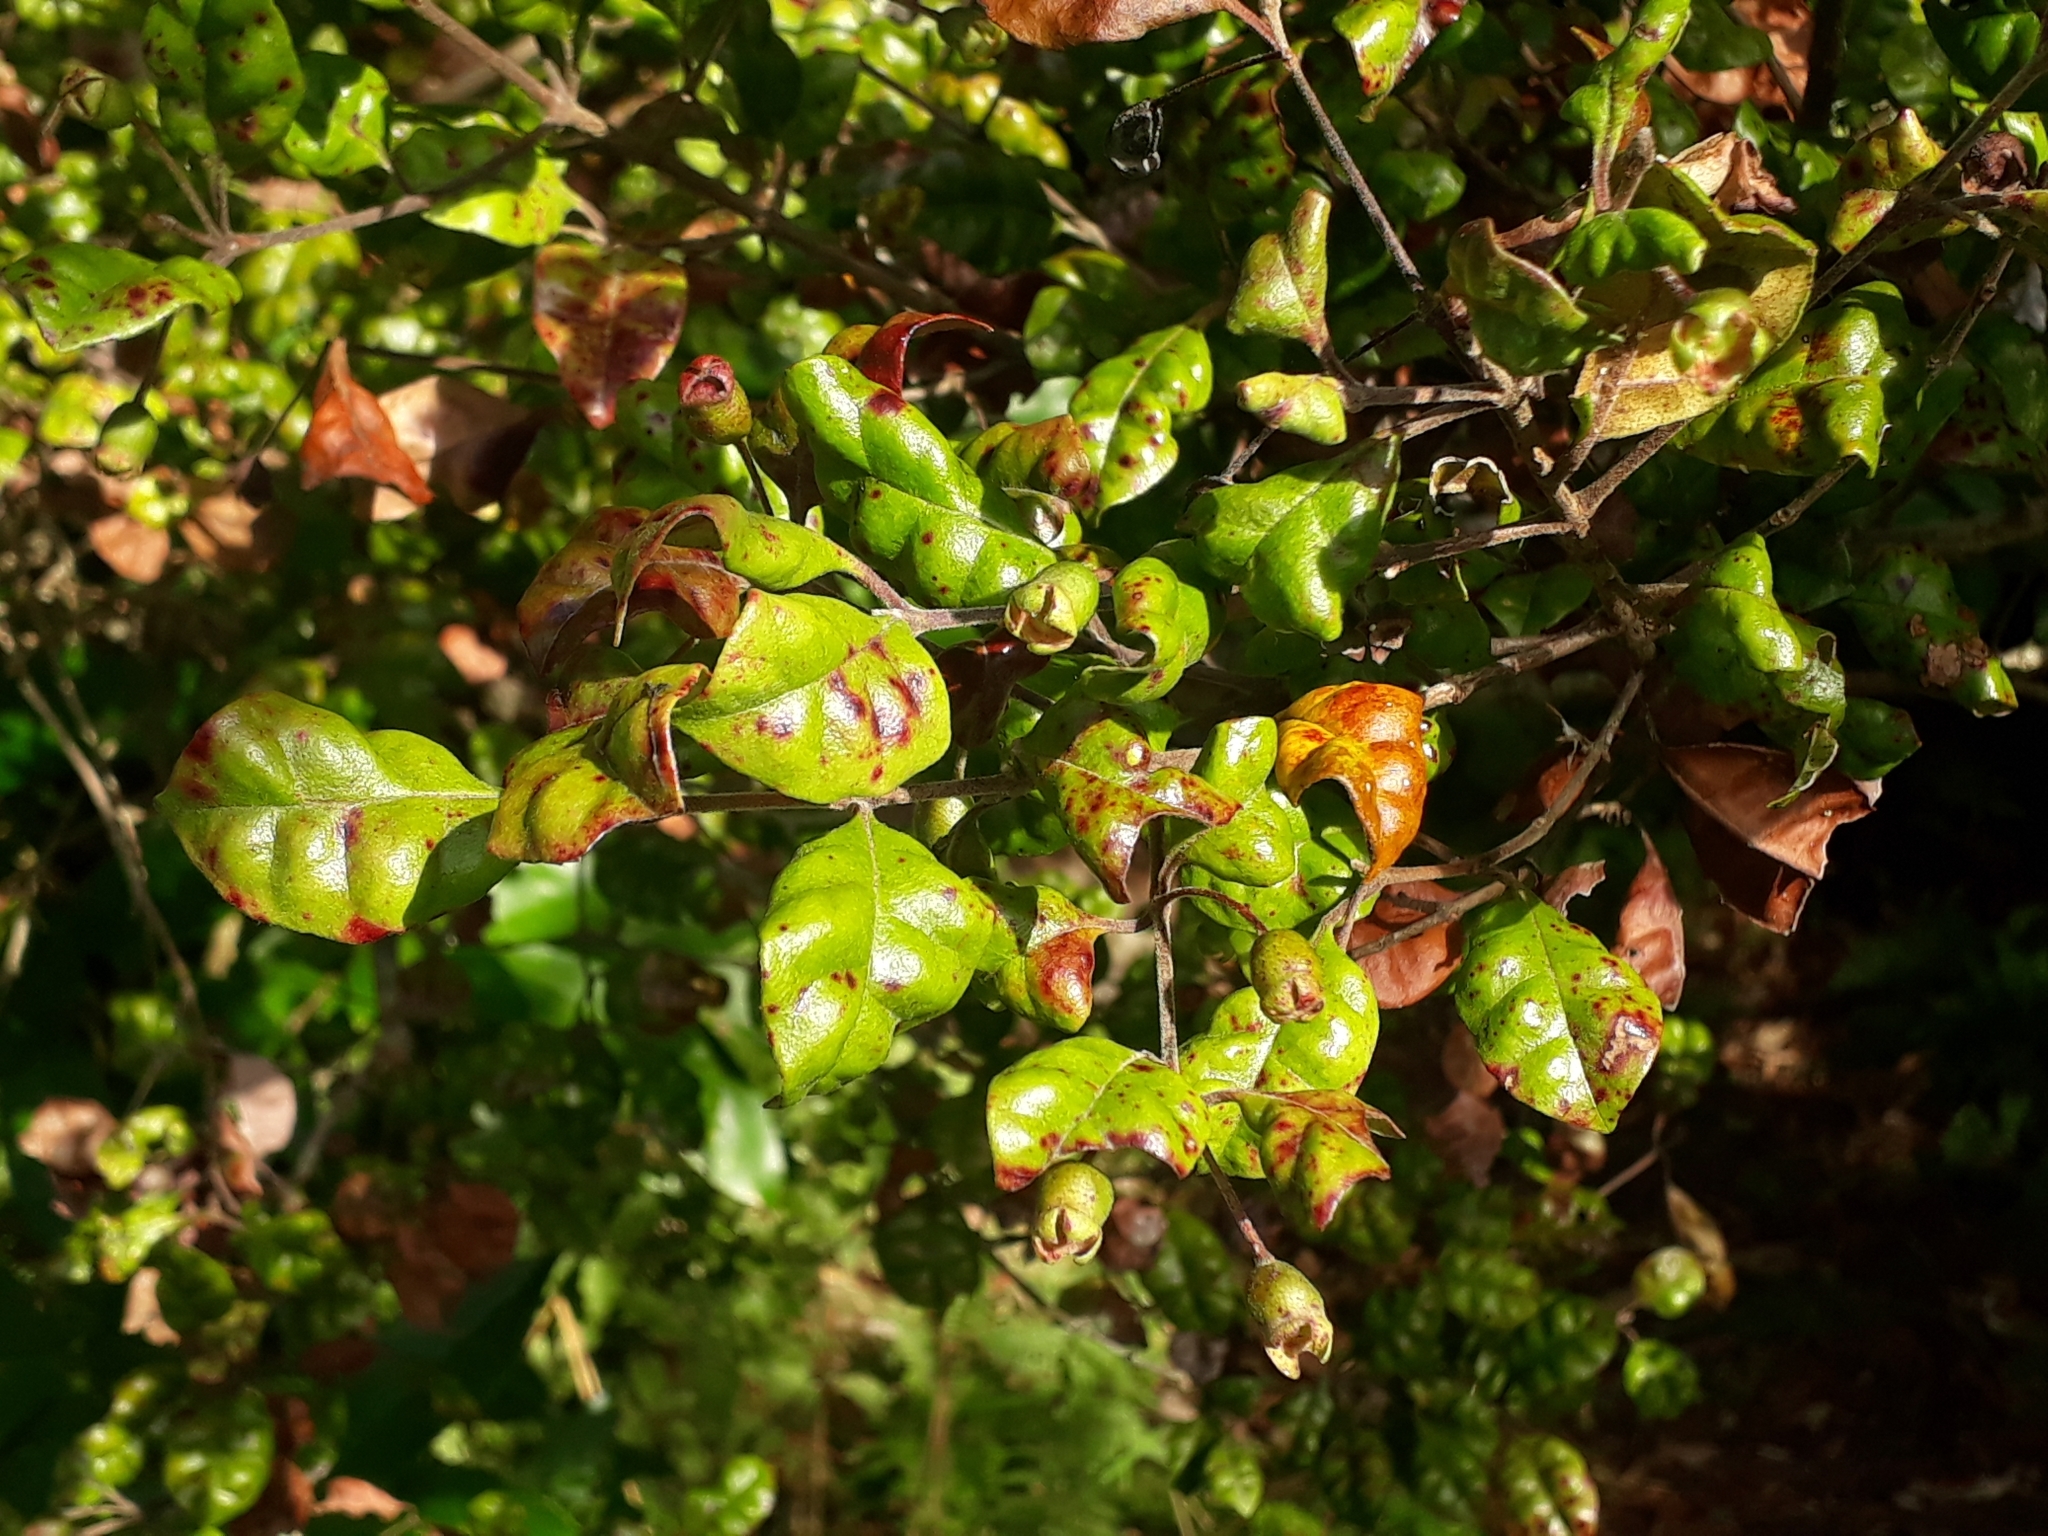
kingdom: Plantae
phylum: Tracheophyta
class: Magnoliopsida
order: Myrtales
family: Myrtaceae
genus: Lophomyrtus
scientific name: Lophomyrtus bullata
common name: Rama rama
